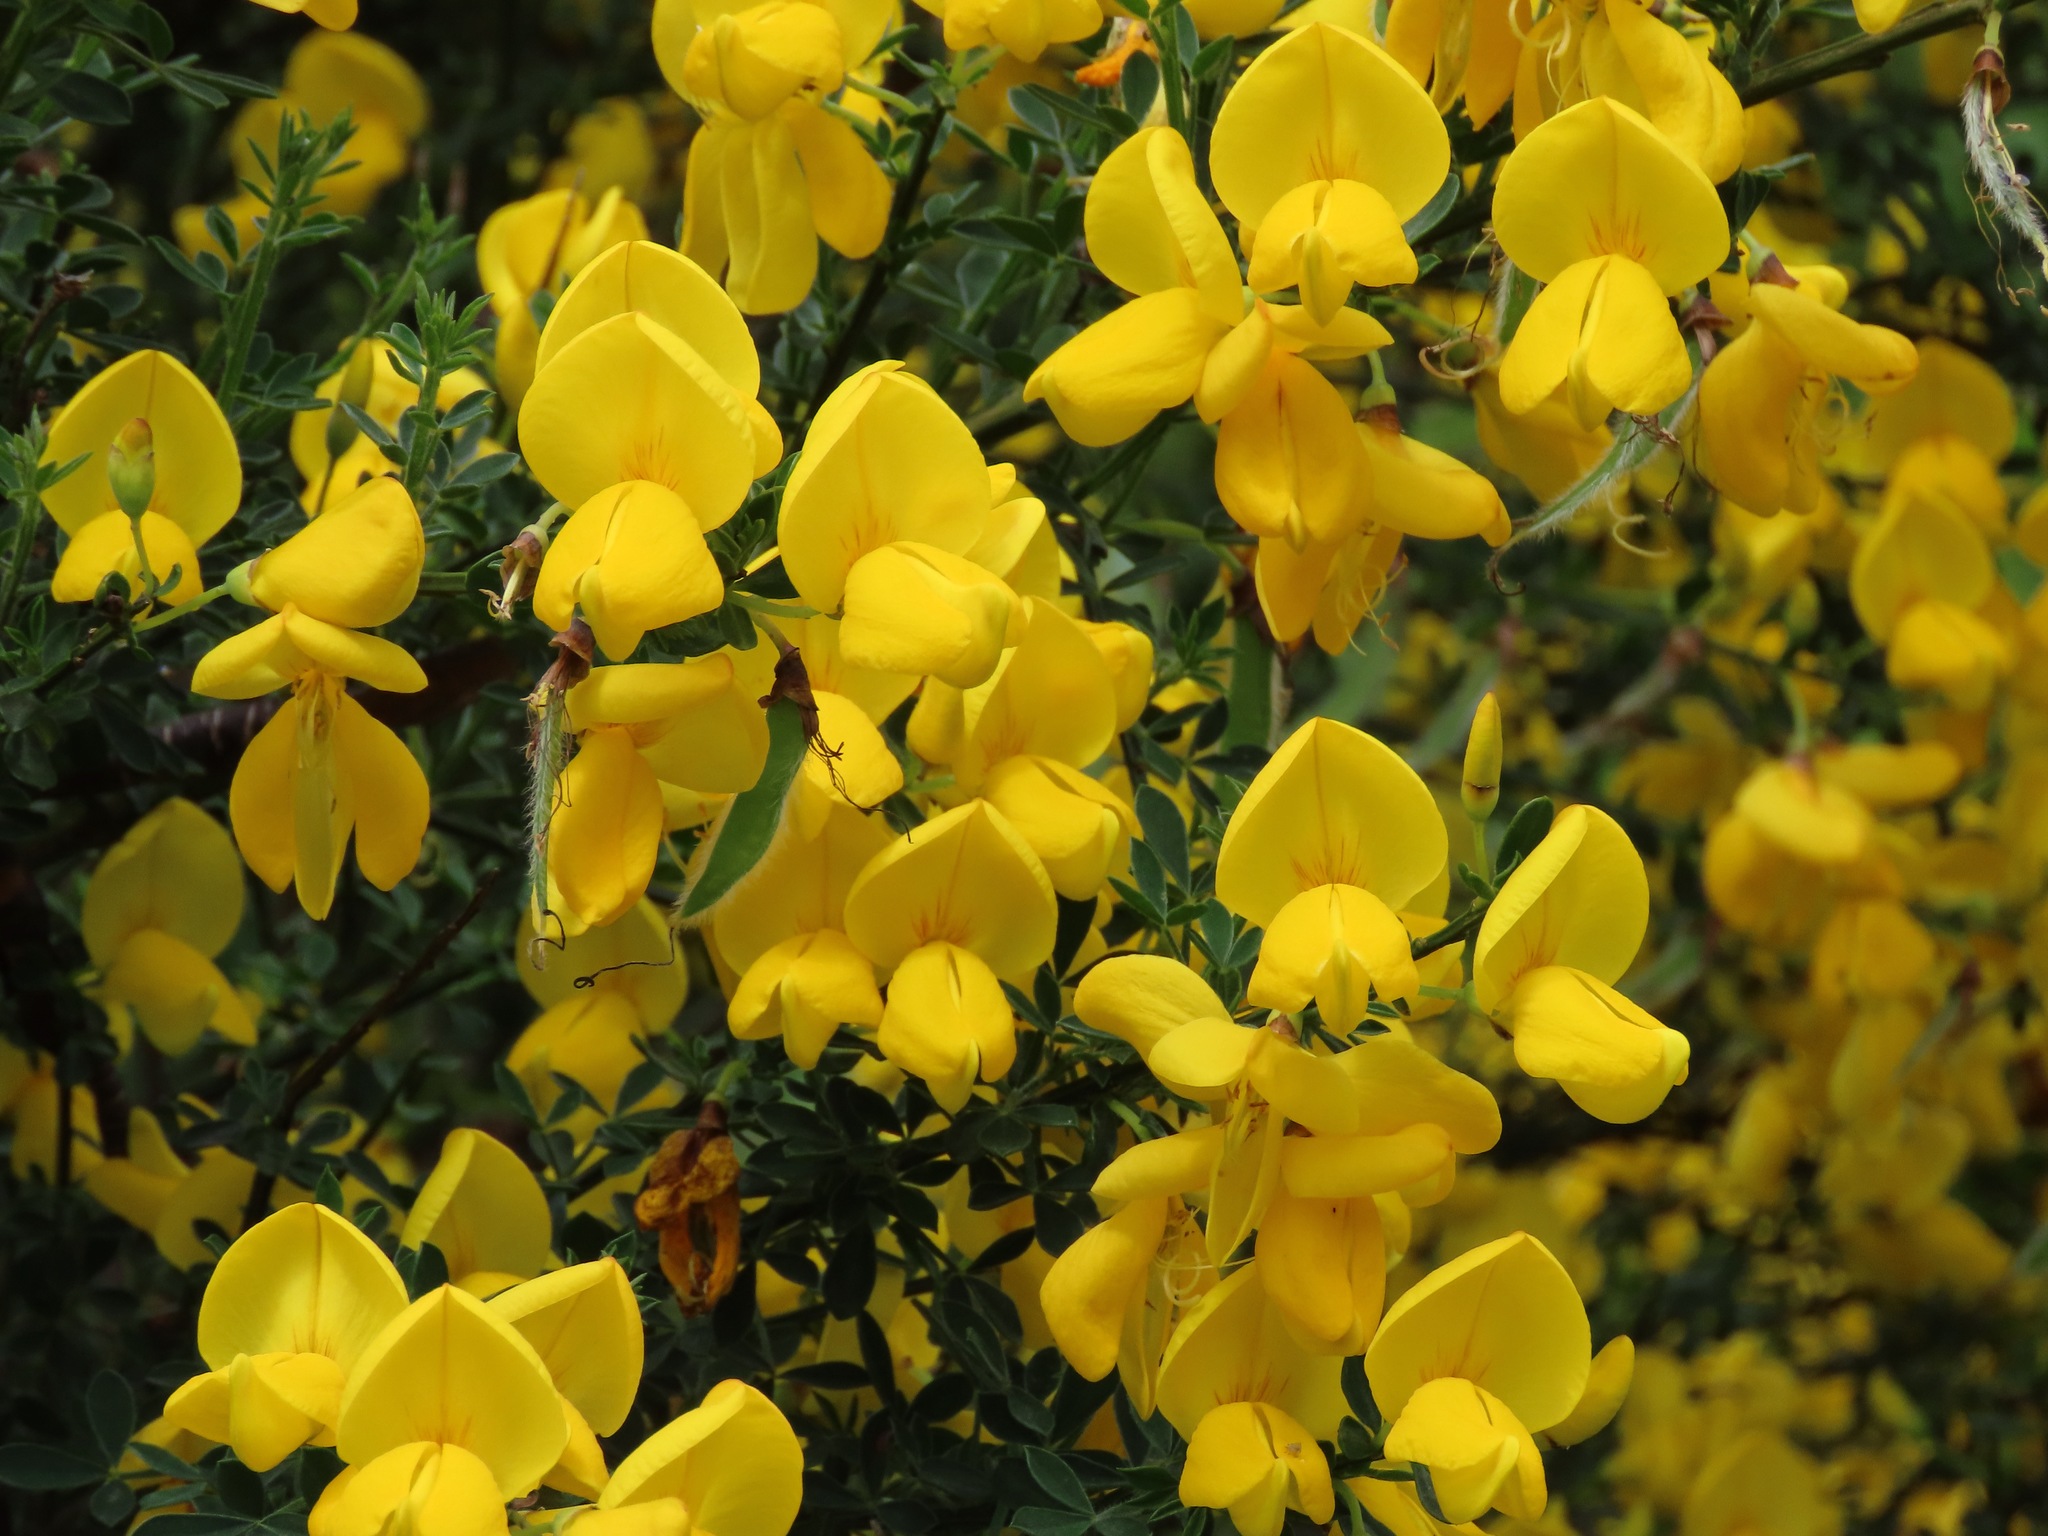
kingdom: Plantae
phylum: Tracheophyta
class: Magnoliopsida
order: Fabales
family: Fabaceae
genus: Cytisus
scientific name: Cytisus scoparius
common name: Scotch broom
